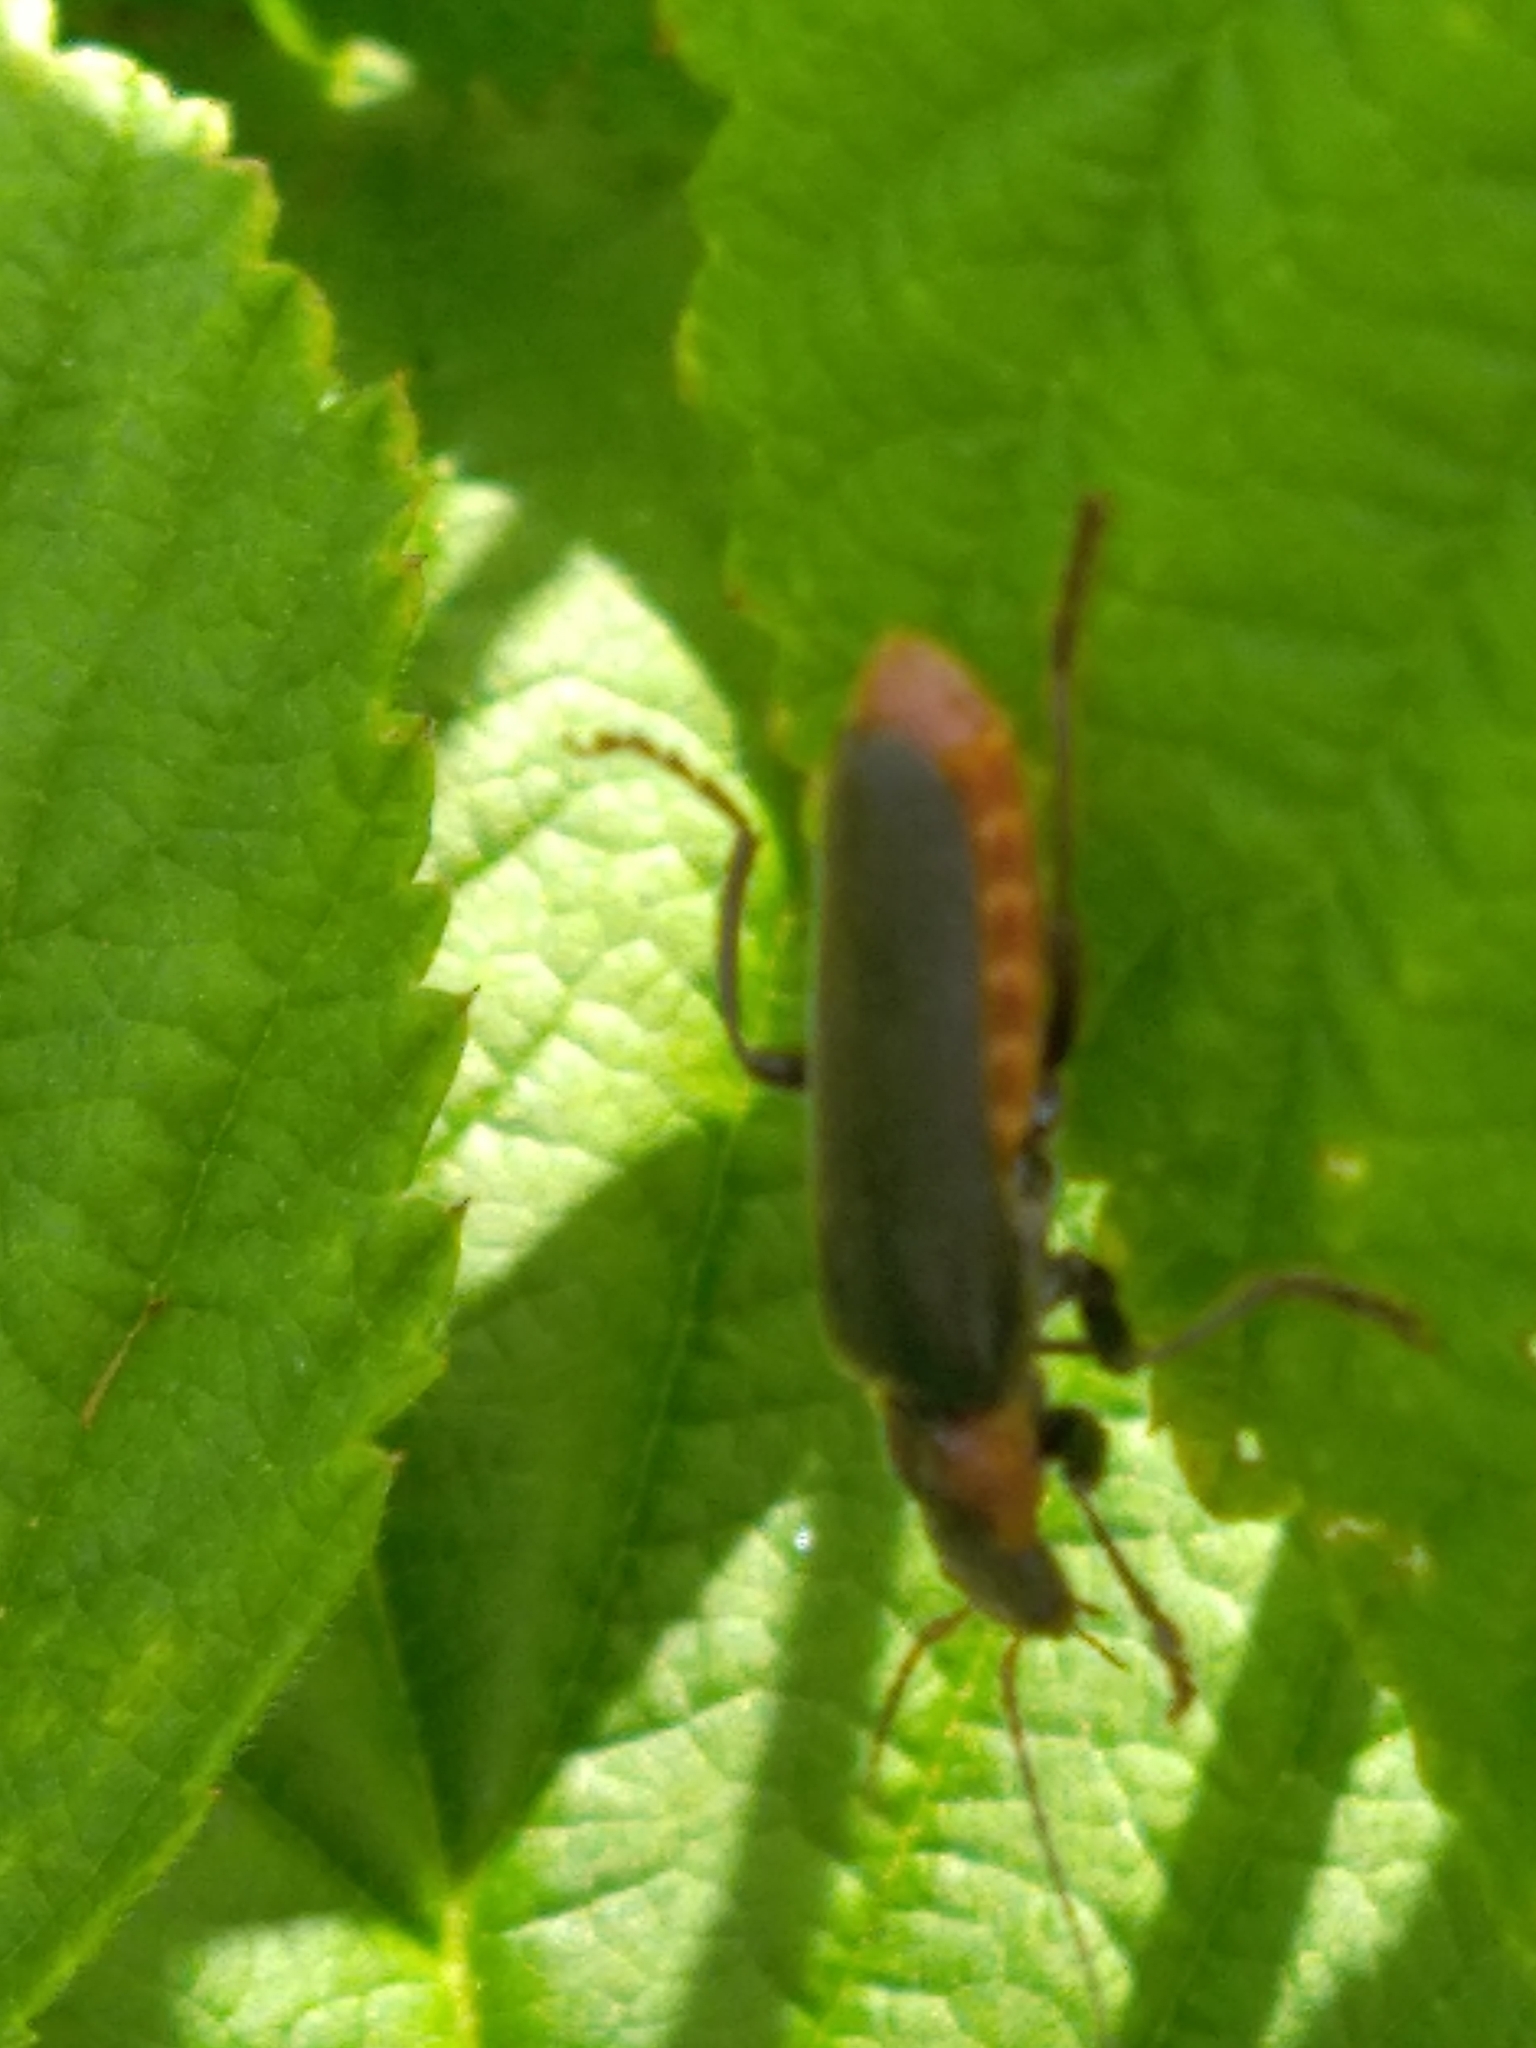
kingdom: Animalia
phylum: Arthropoda
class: Insecta
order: Coleoptera
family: Cantharidae
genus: Cantharis
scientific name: Cantharis fusca
